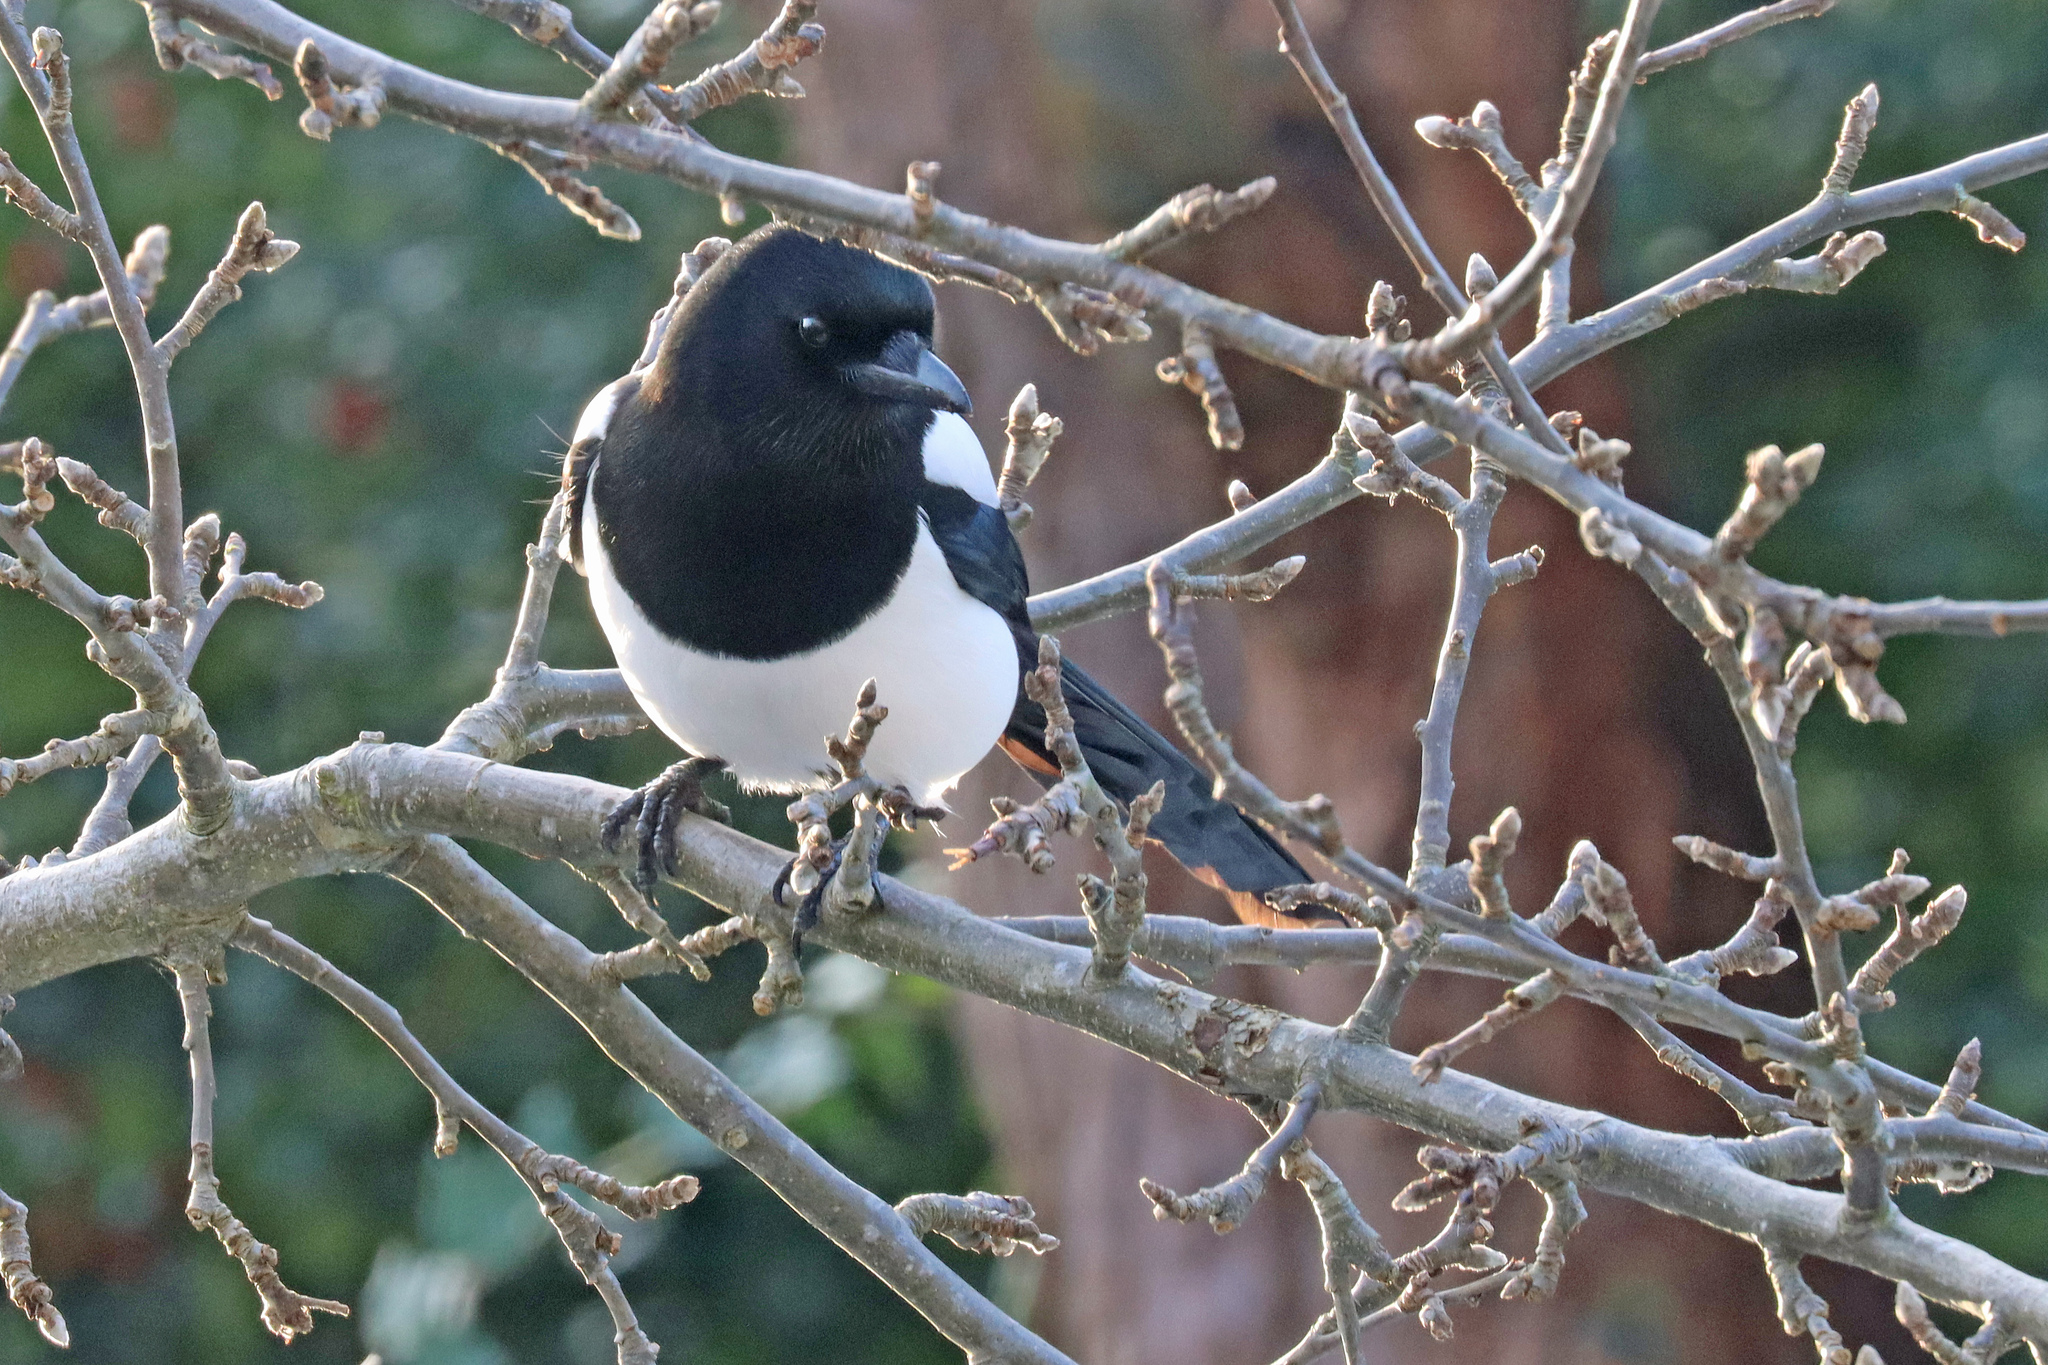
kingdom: Animalia
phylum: Chordata
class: Aves
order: Passeriformes
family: Corvidae
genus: Pica
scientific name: Pica pica
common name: Eurasian magpie
